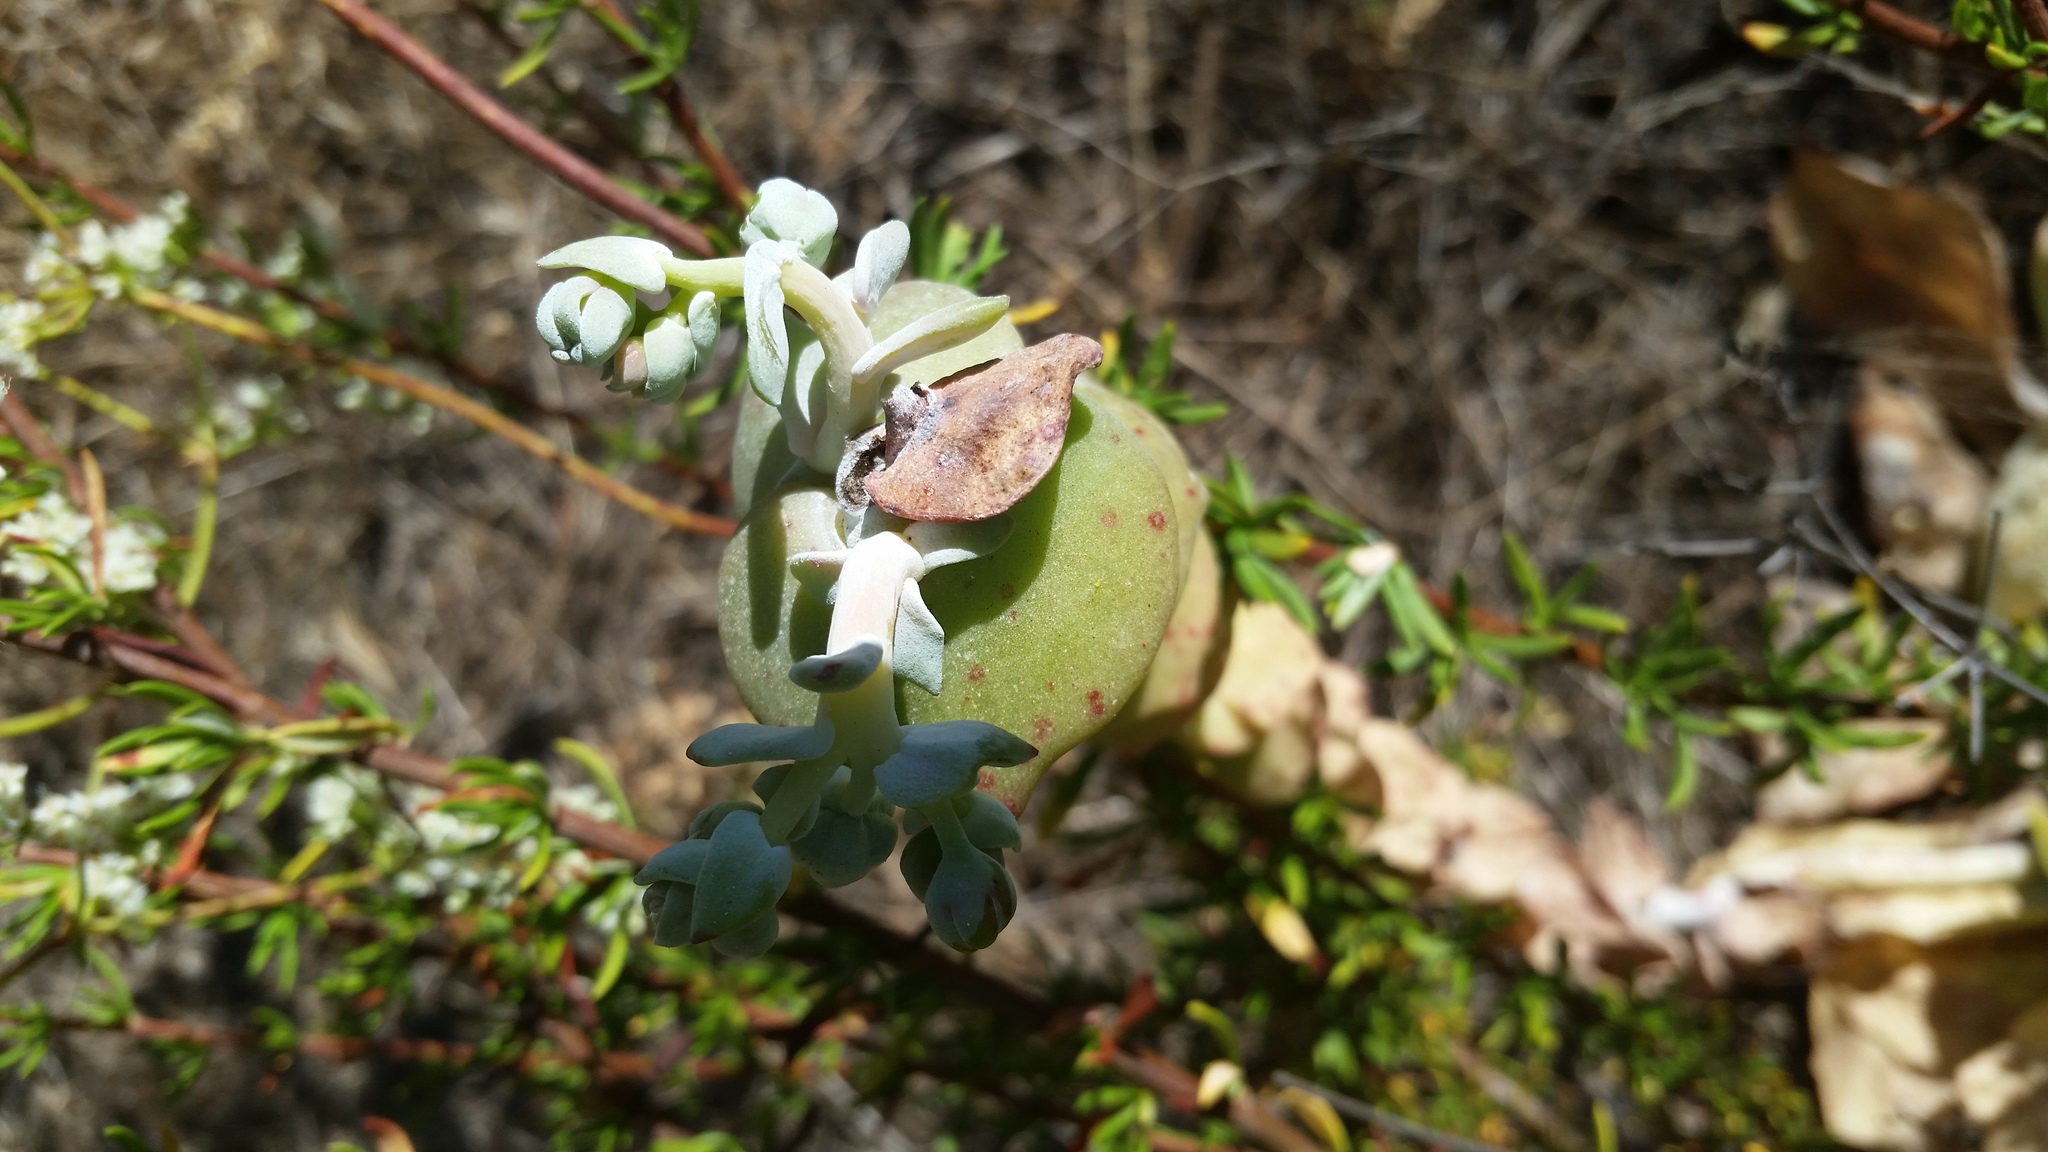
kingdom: Plantae
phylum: Tracheophyta
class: Magnoliopsida
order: Saxifragales
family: Crassulaceae
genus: Dudleya
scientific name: Dudleya pulverulenta
